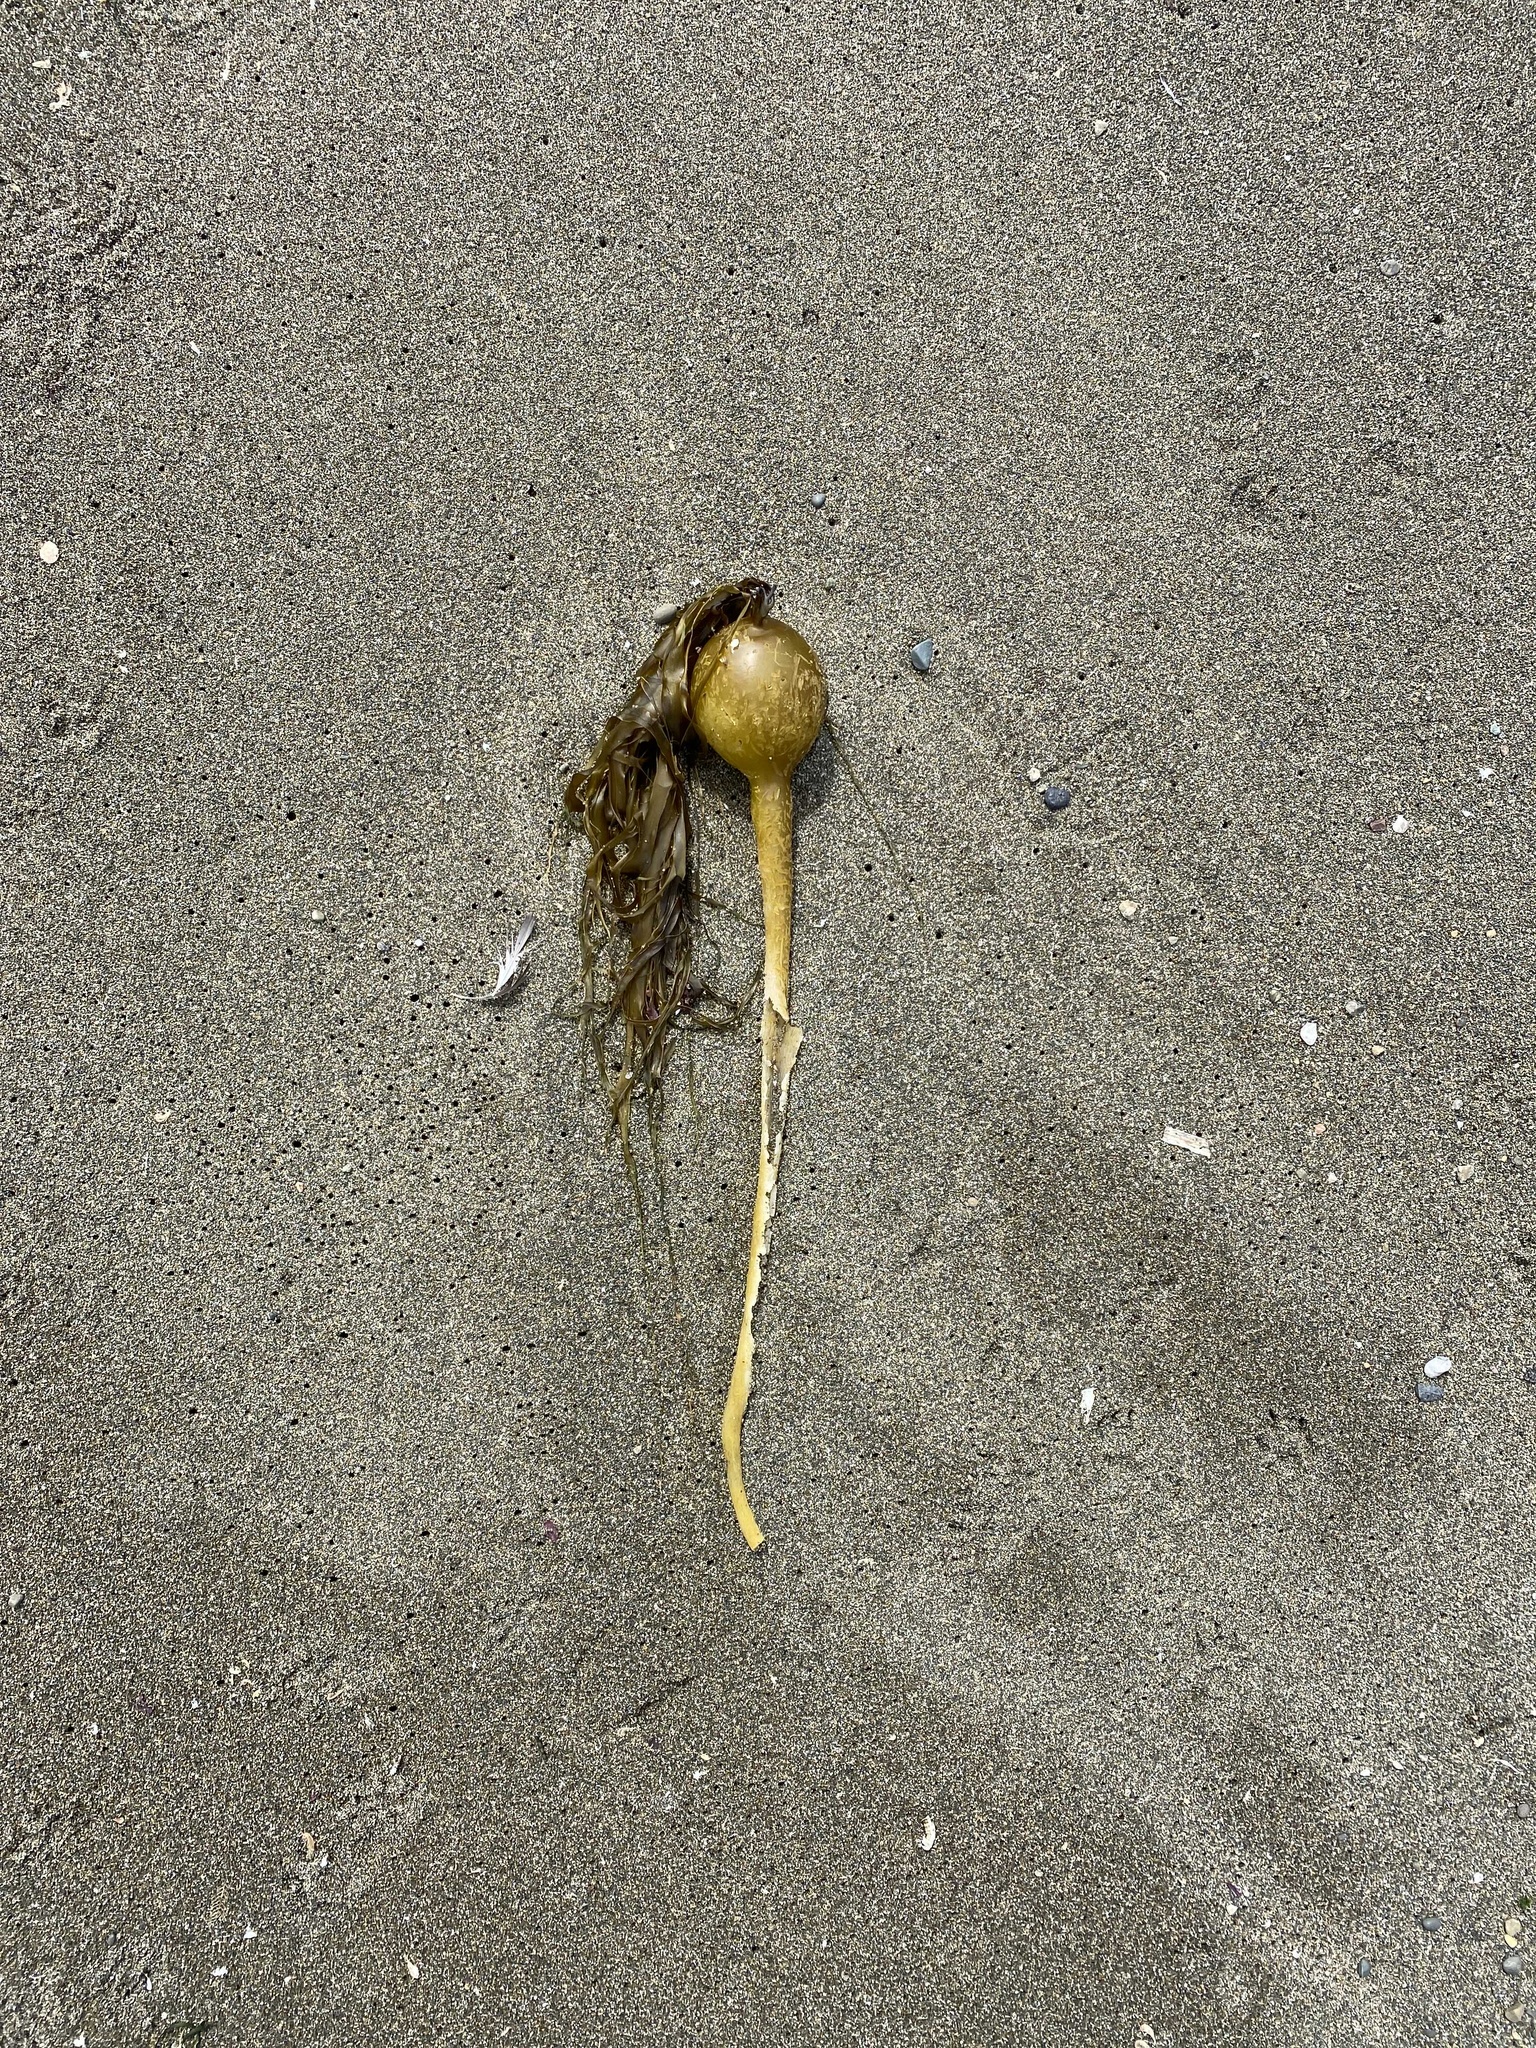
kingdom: Chromista
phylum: Ochrophyta
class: Phaeophyceae
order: Laminariales
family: Laminariaceae
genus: Nereocystis
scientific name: Nereocystis luetkeana
